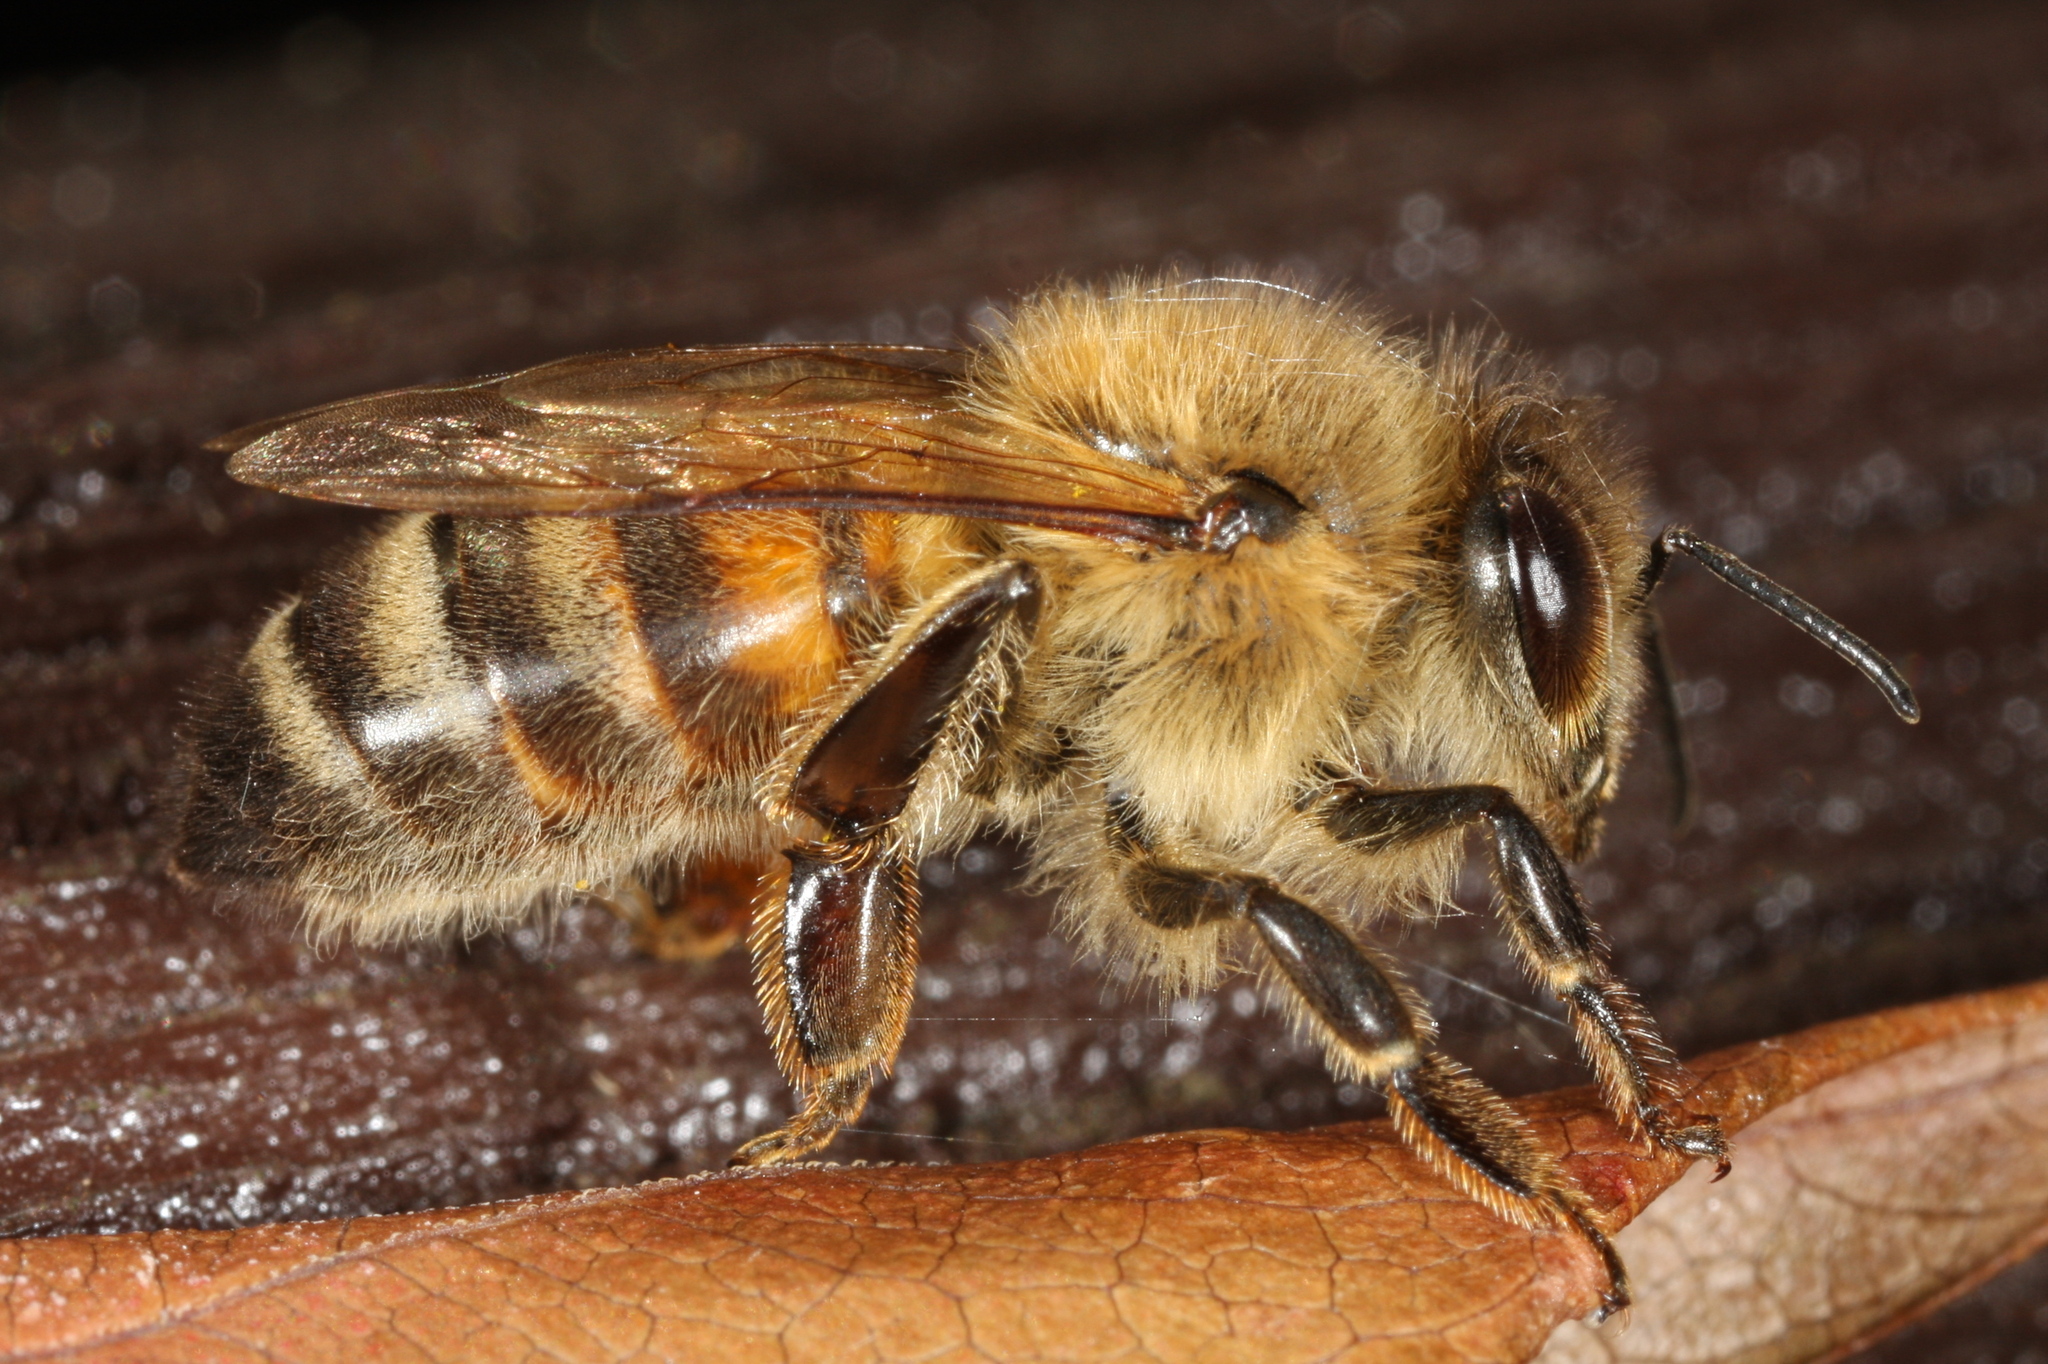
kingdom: Animalia
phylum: Arthropoda
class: Insecta
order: Hymenoptera
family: Apidae
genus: Apis
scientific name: Apis mellifera
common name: Honey bee
